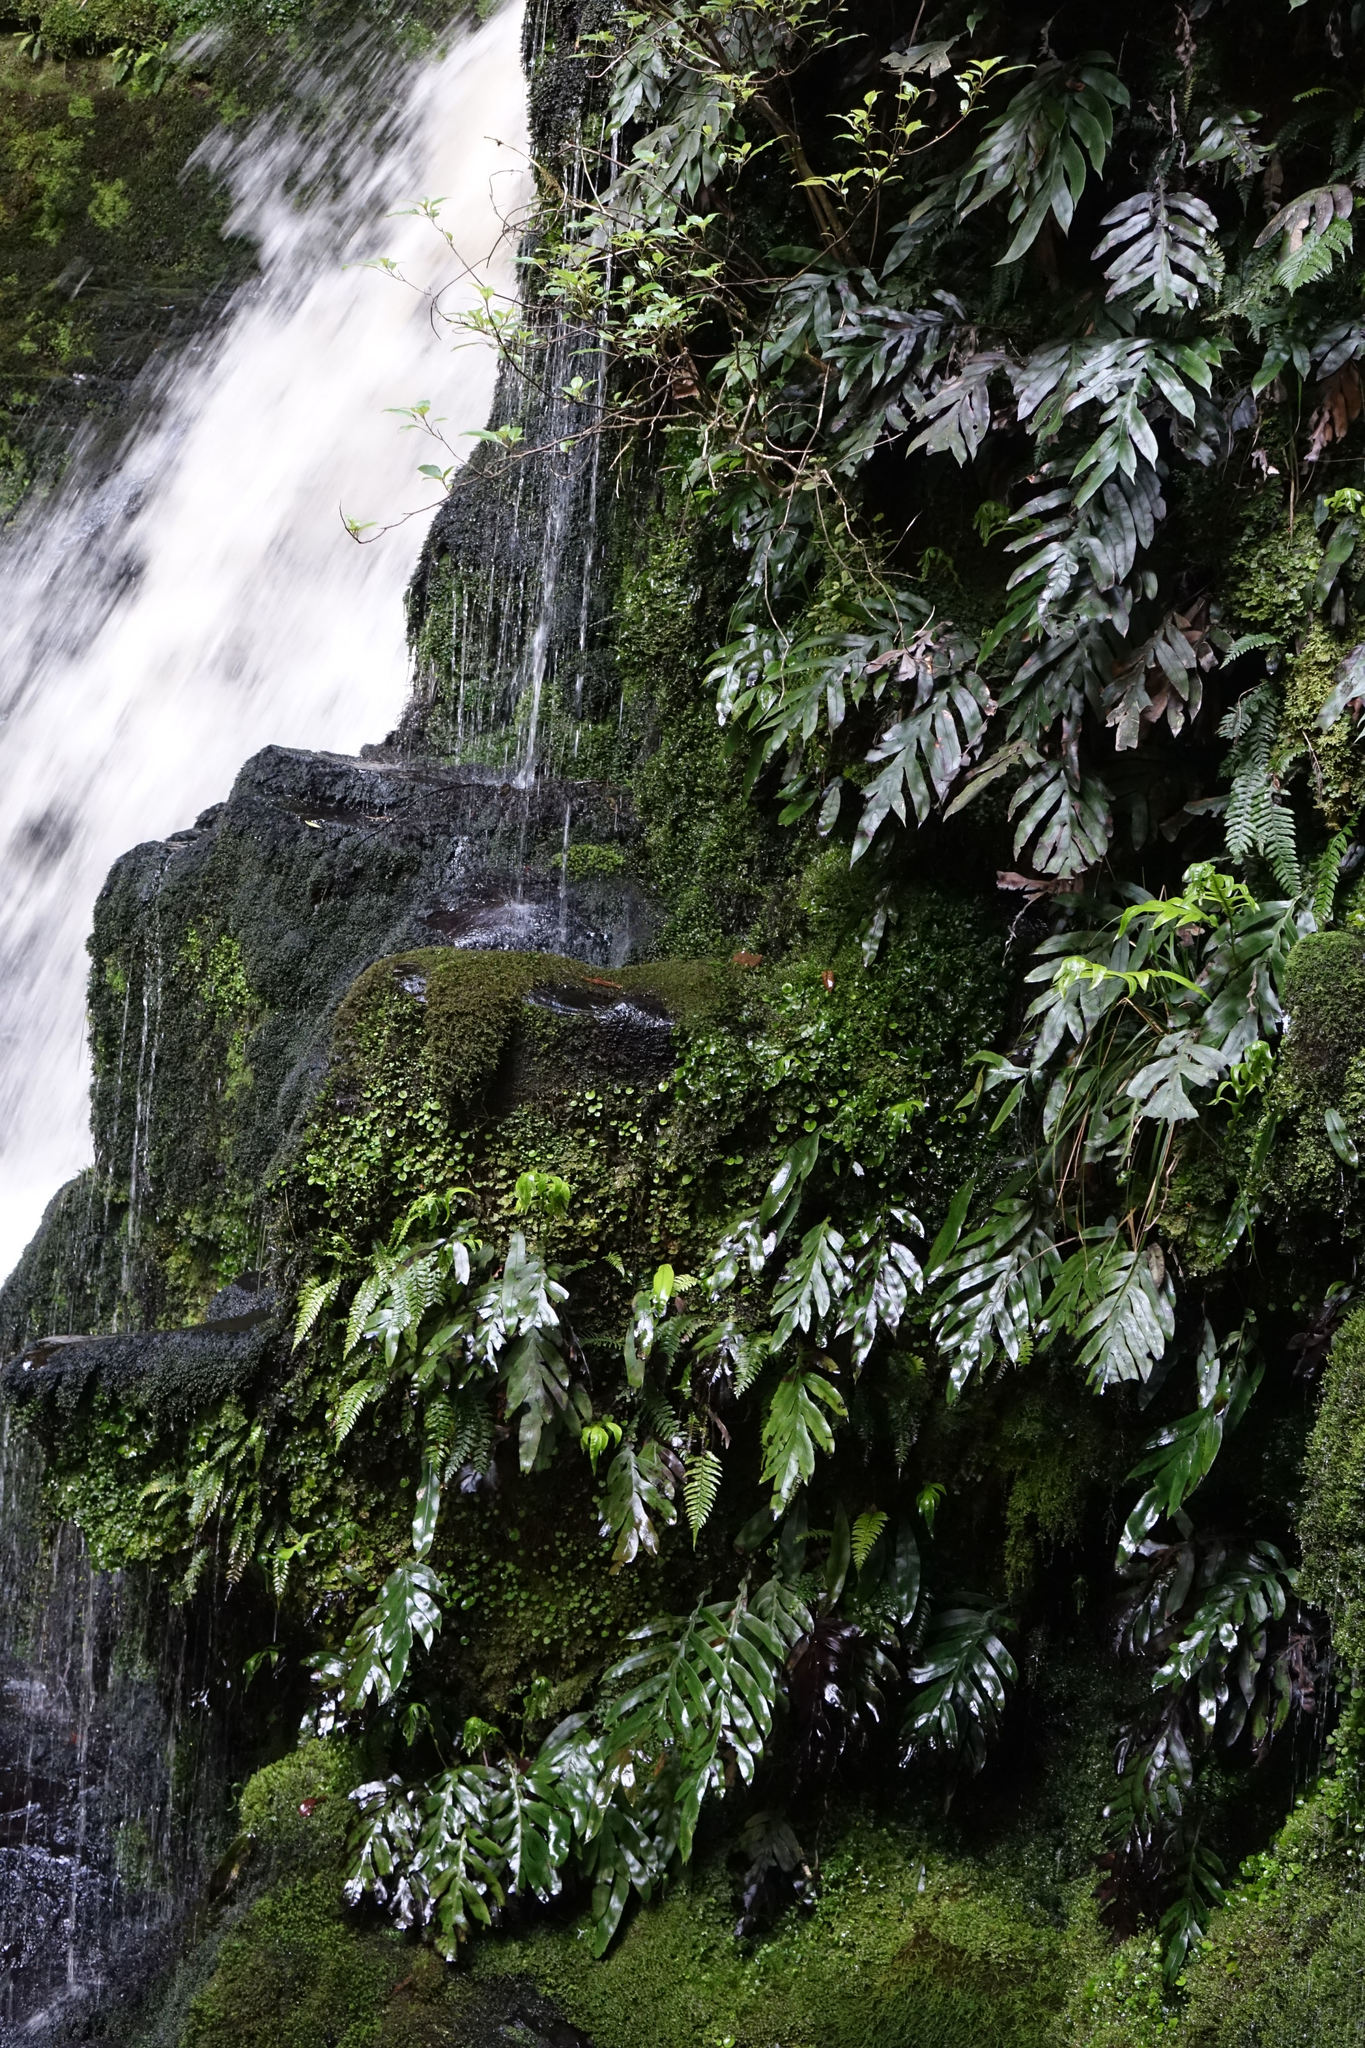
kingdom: Plantae
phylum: Tracheophyta
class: Polypodiopsida
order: Polypodiales
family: Blechnaceae
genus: Austroblechnum
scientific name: Austroblechnum colensoi
